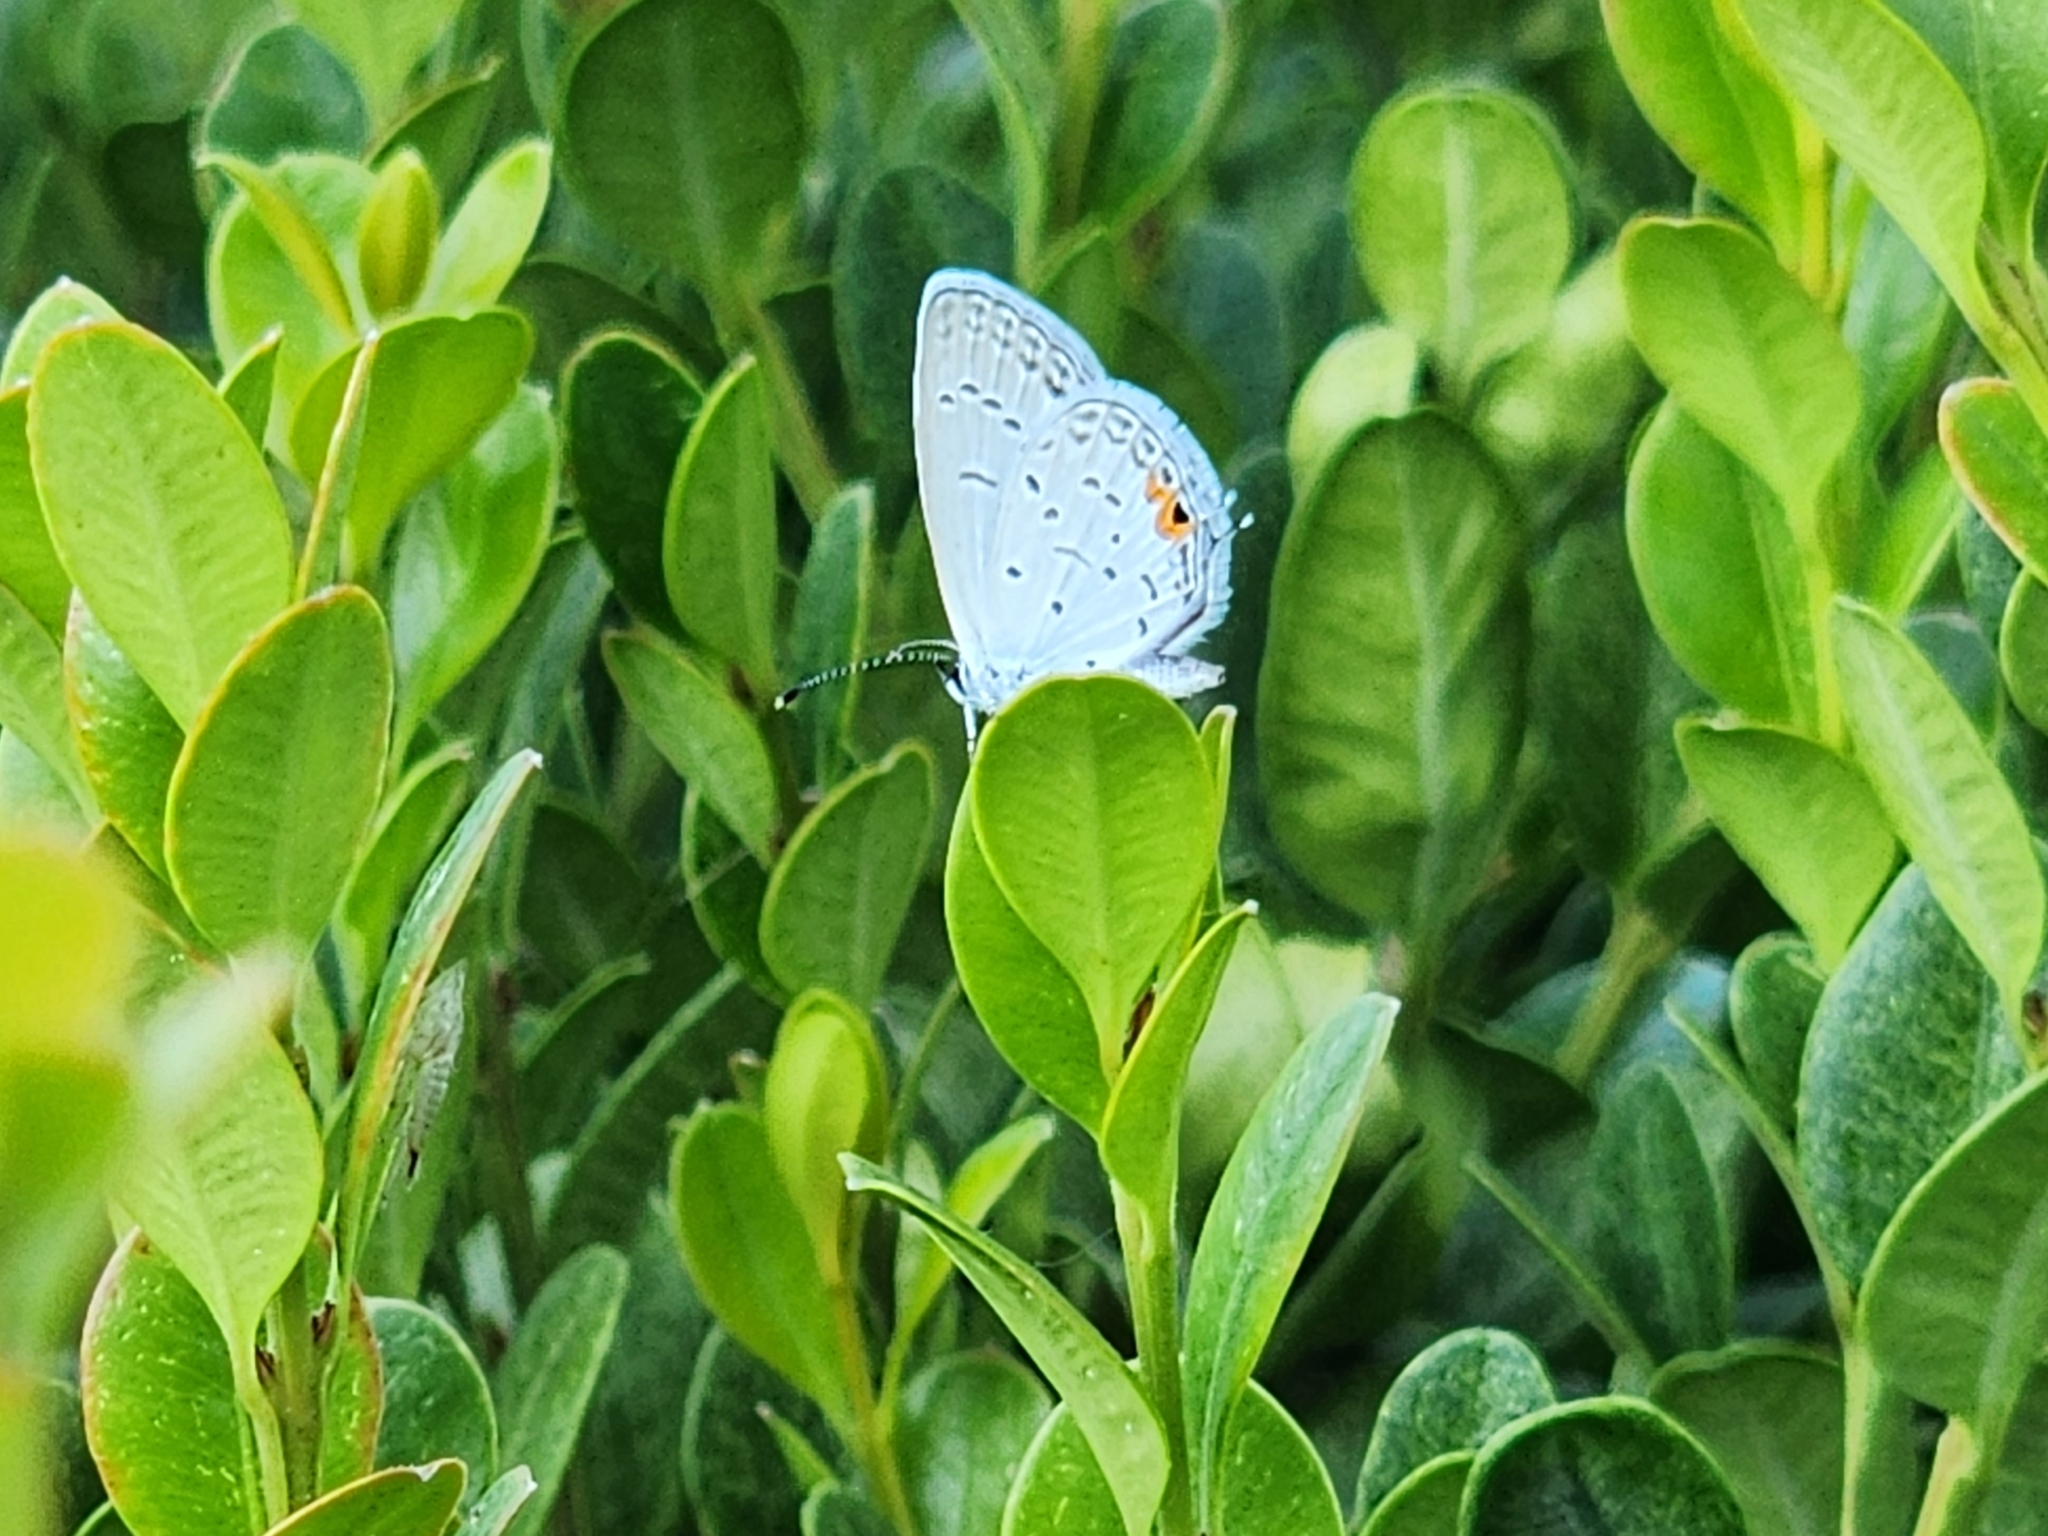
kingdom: Animalia
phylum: Arthropoda
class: Insecta
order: Lepidoptera
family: Lycaenidae
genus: Elkalyce
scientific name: Elkalyce comyntas
